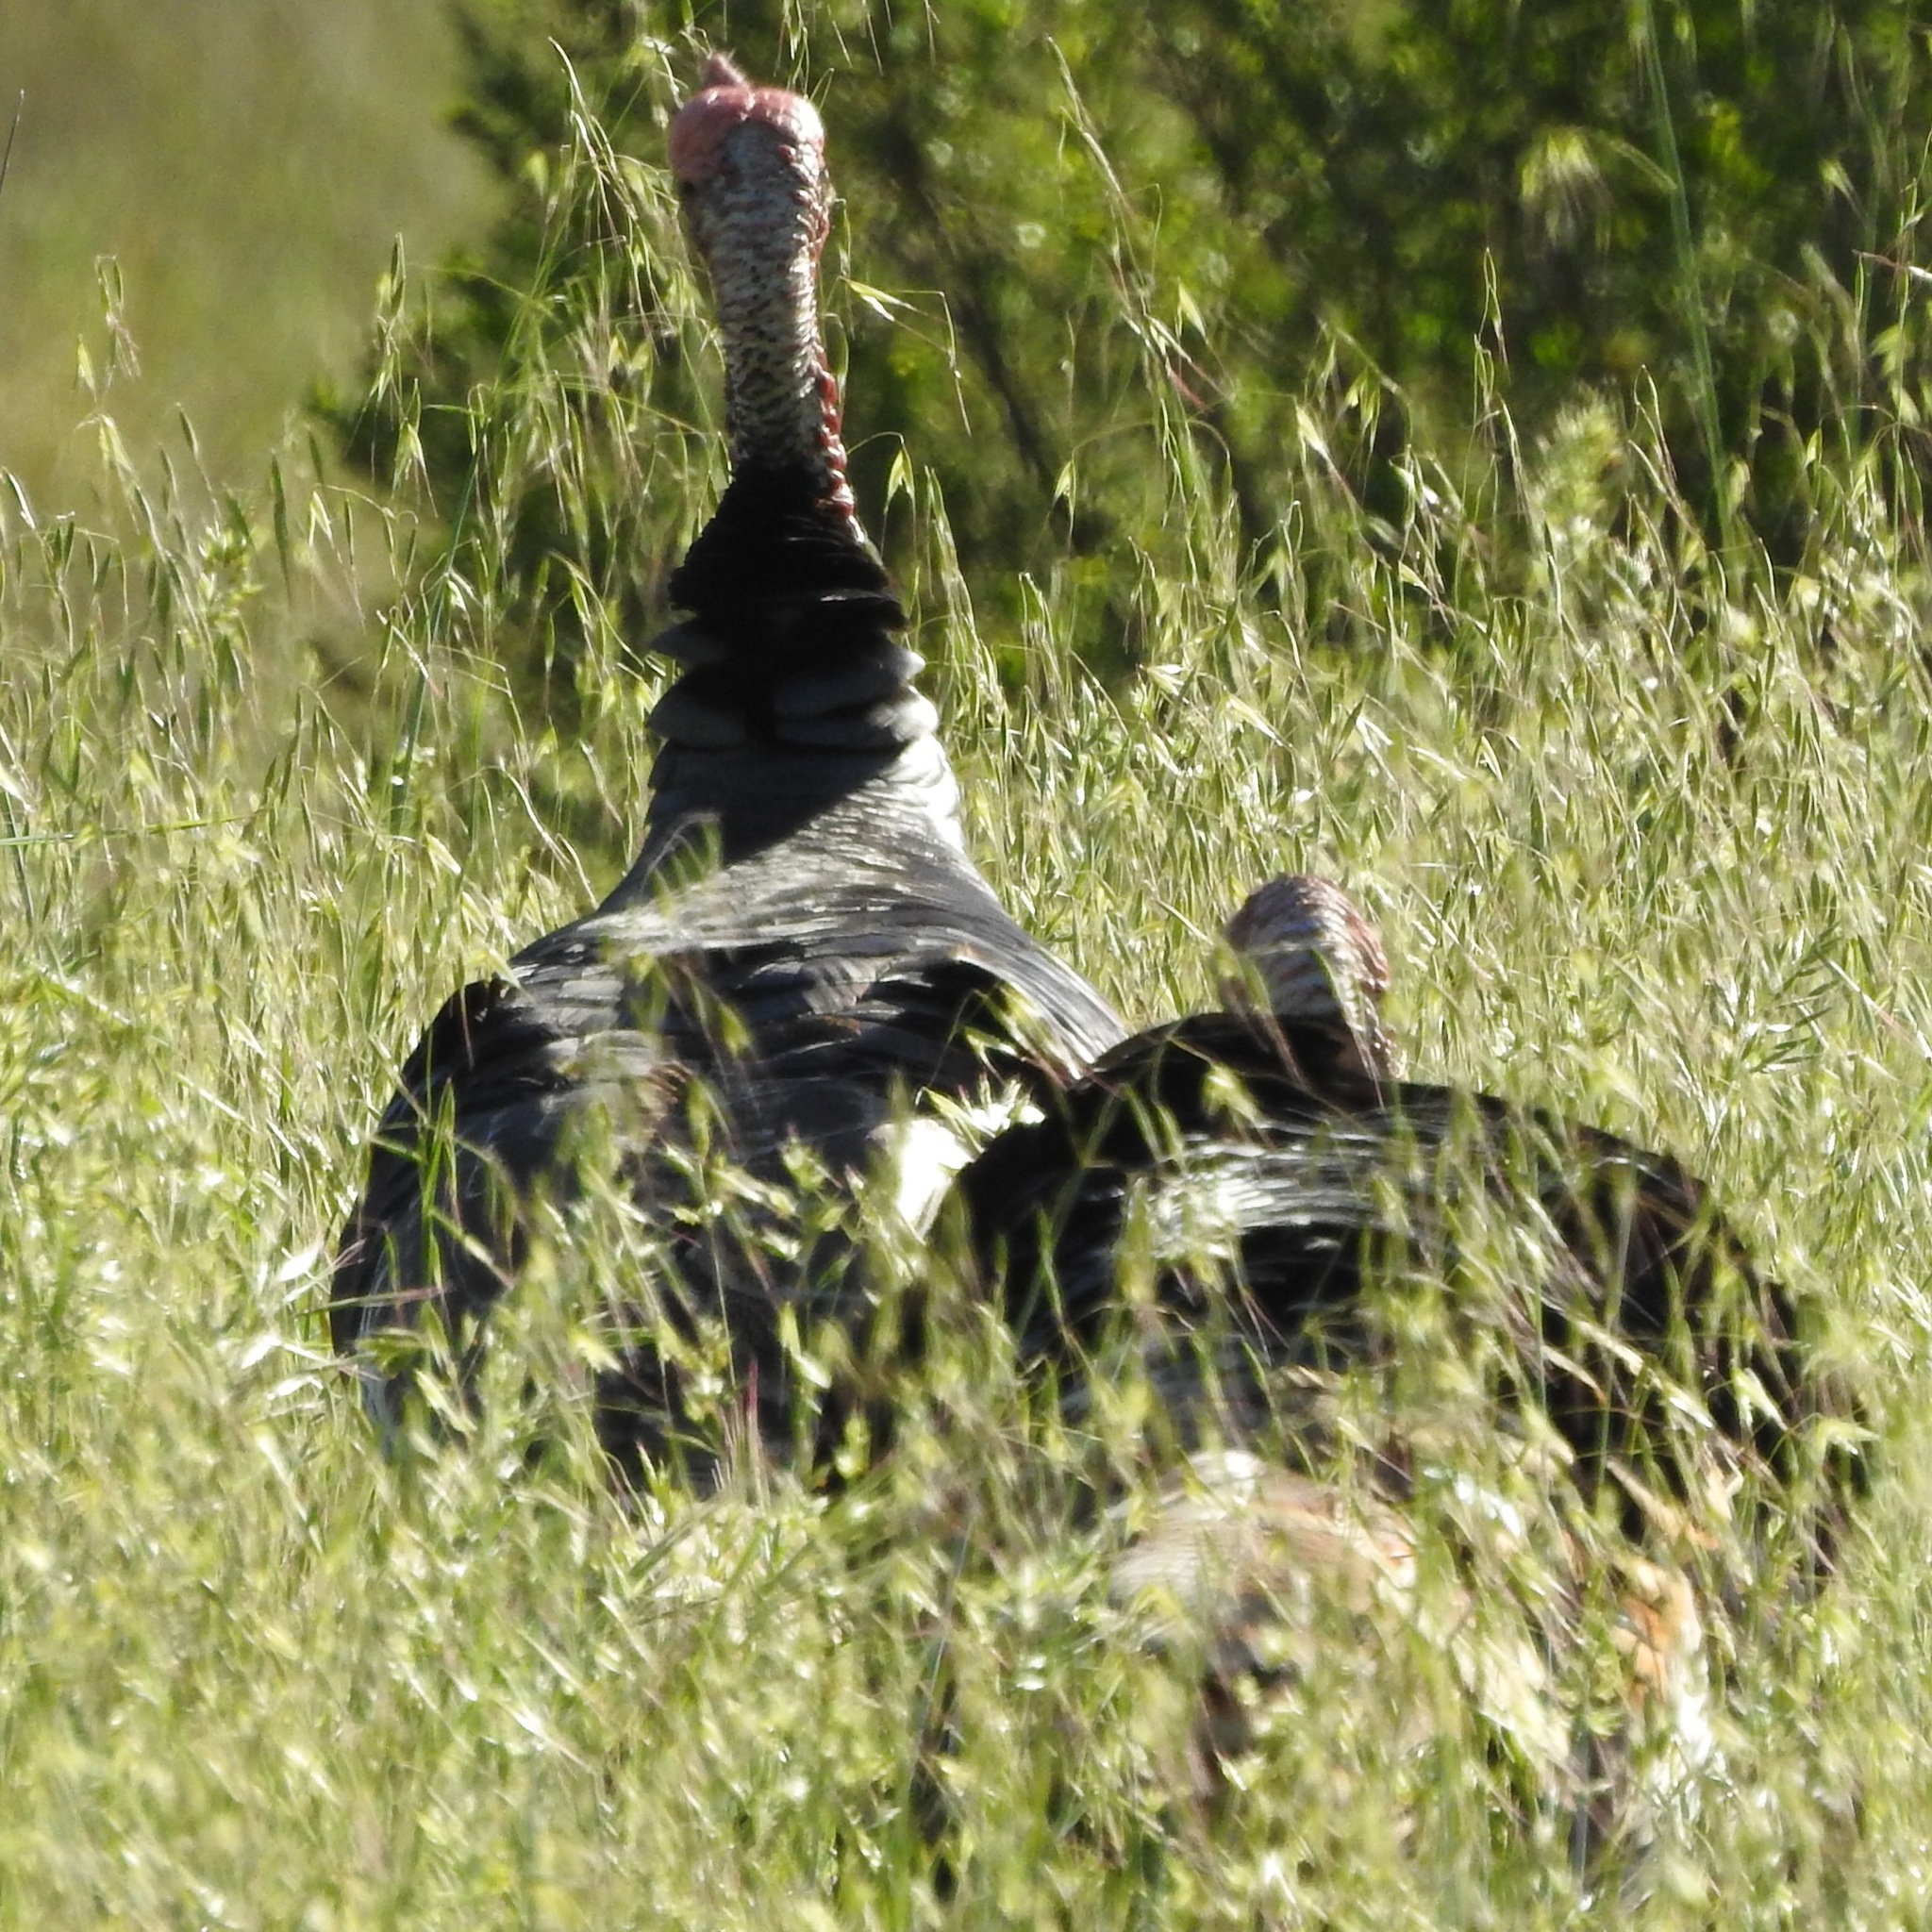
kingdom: Animalia
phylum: Chordata
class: Aves
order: Galliformes
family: Phasianidae
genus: Meleagris
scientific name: Meleagris gallopavo
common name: Wild turkey
